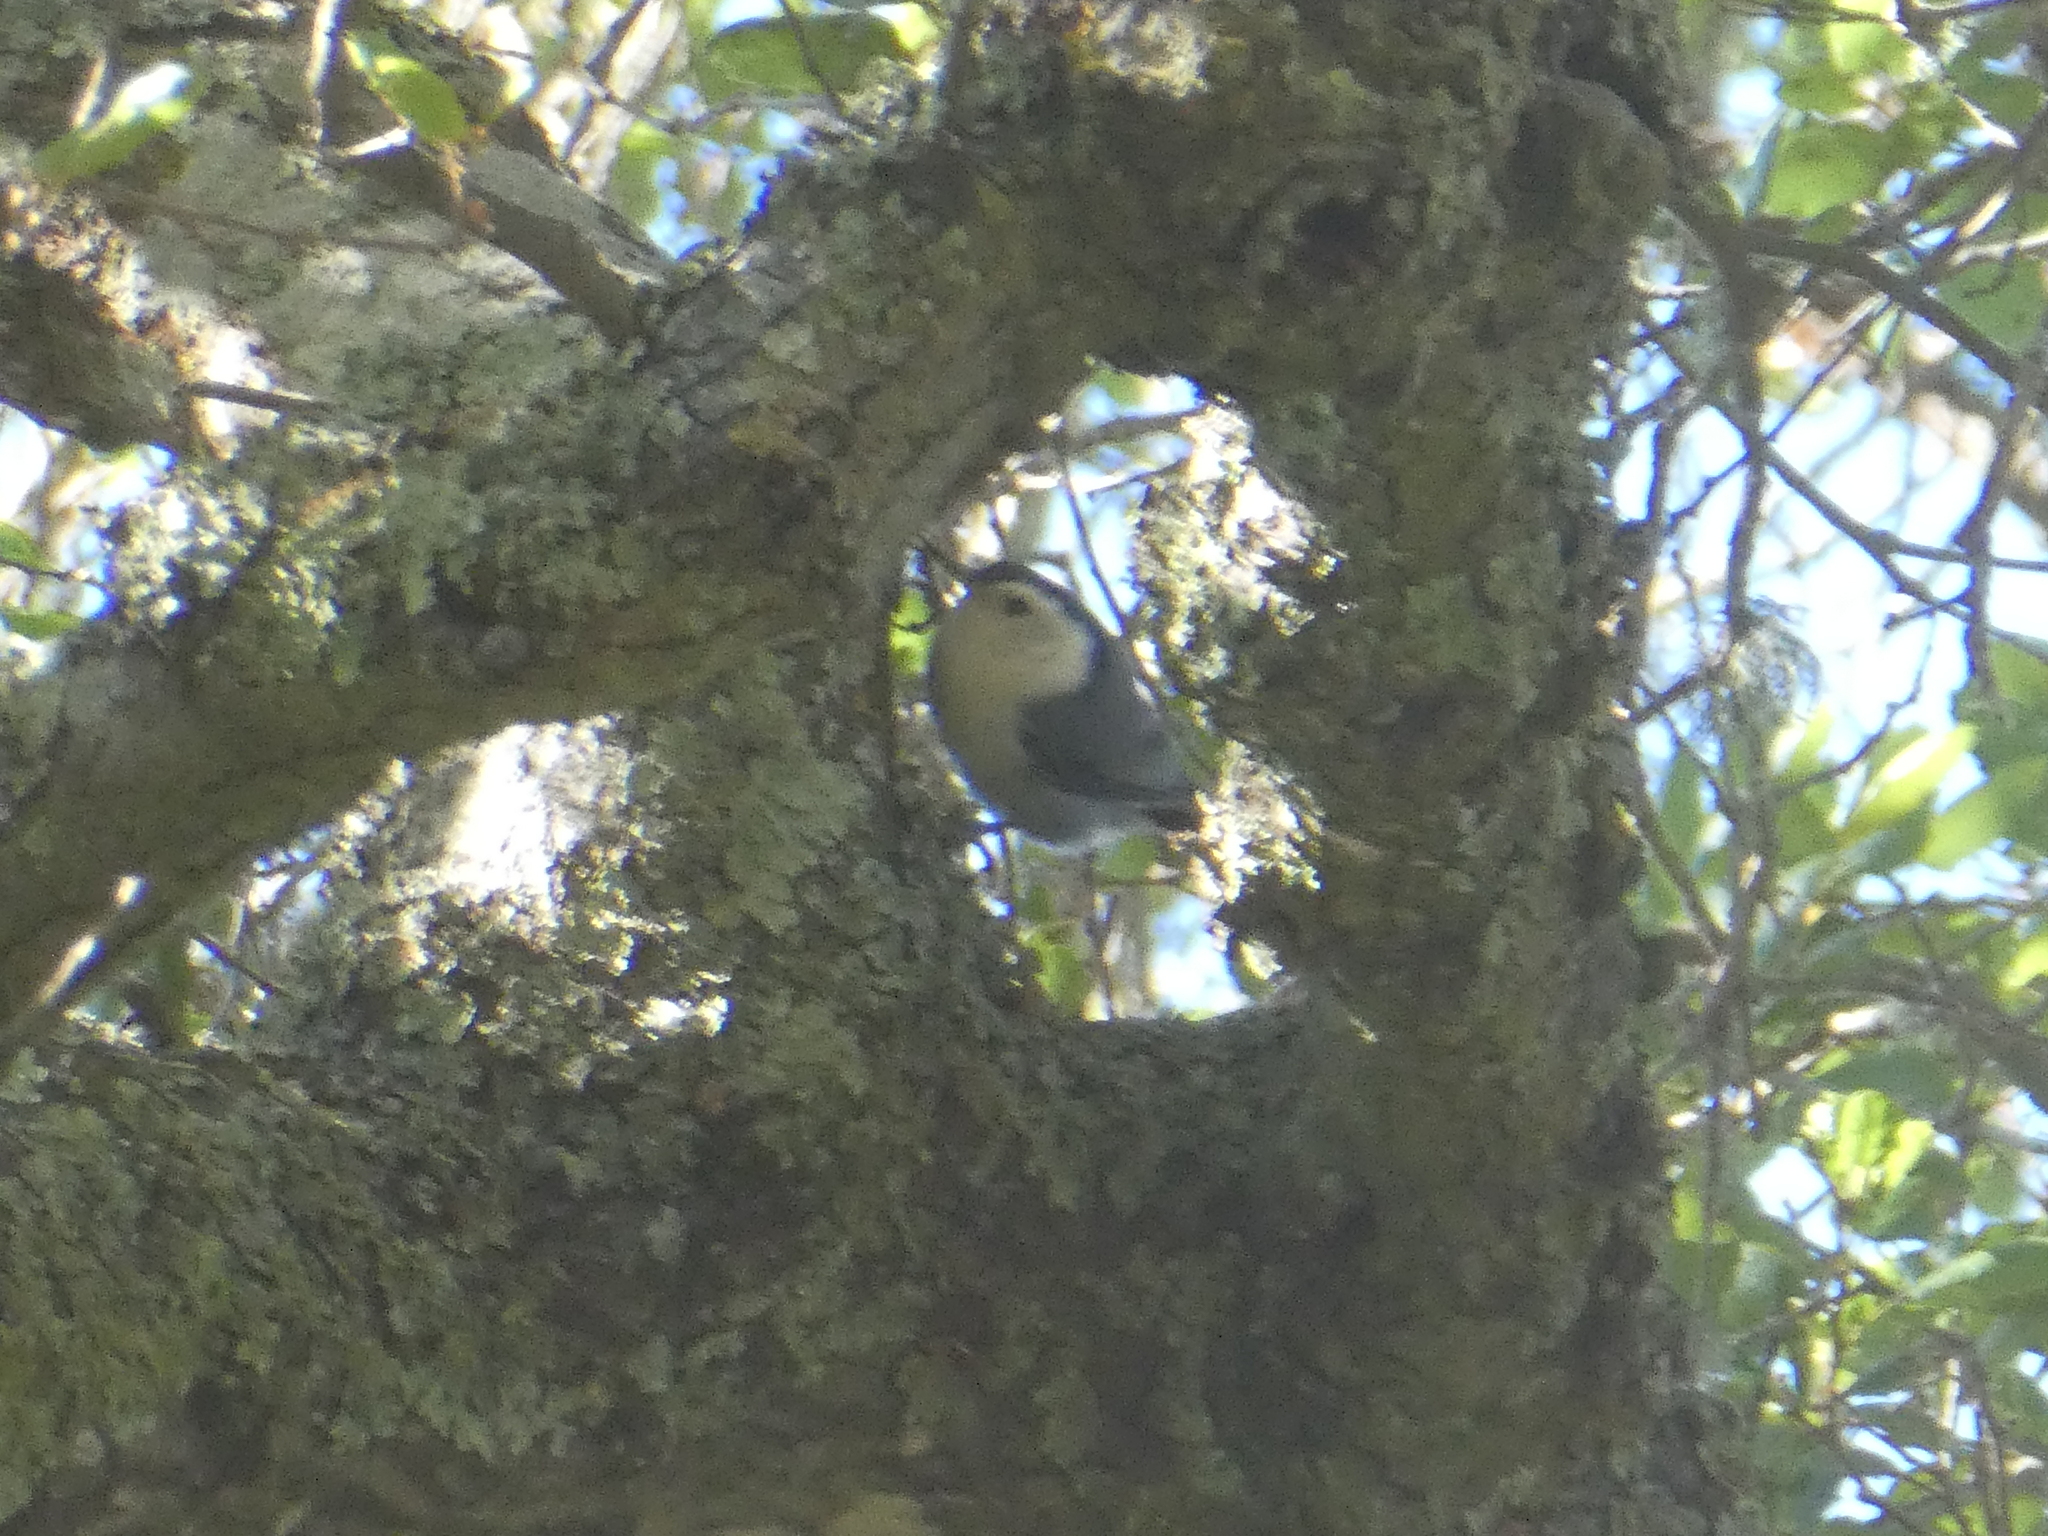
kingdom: Animalia
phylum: Chordata
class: Aves
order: Passeriformes
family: Sittidae
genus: Sitta
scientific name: Sitta carolinensis
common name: White-breasted nuthatch
